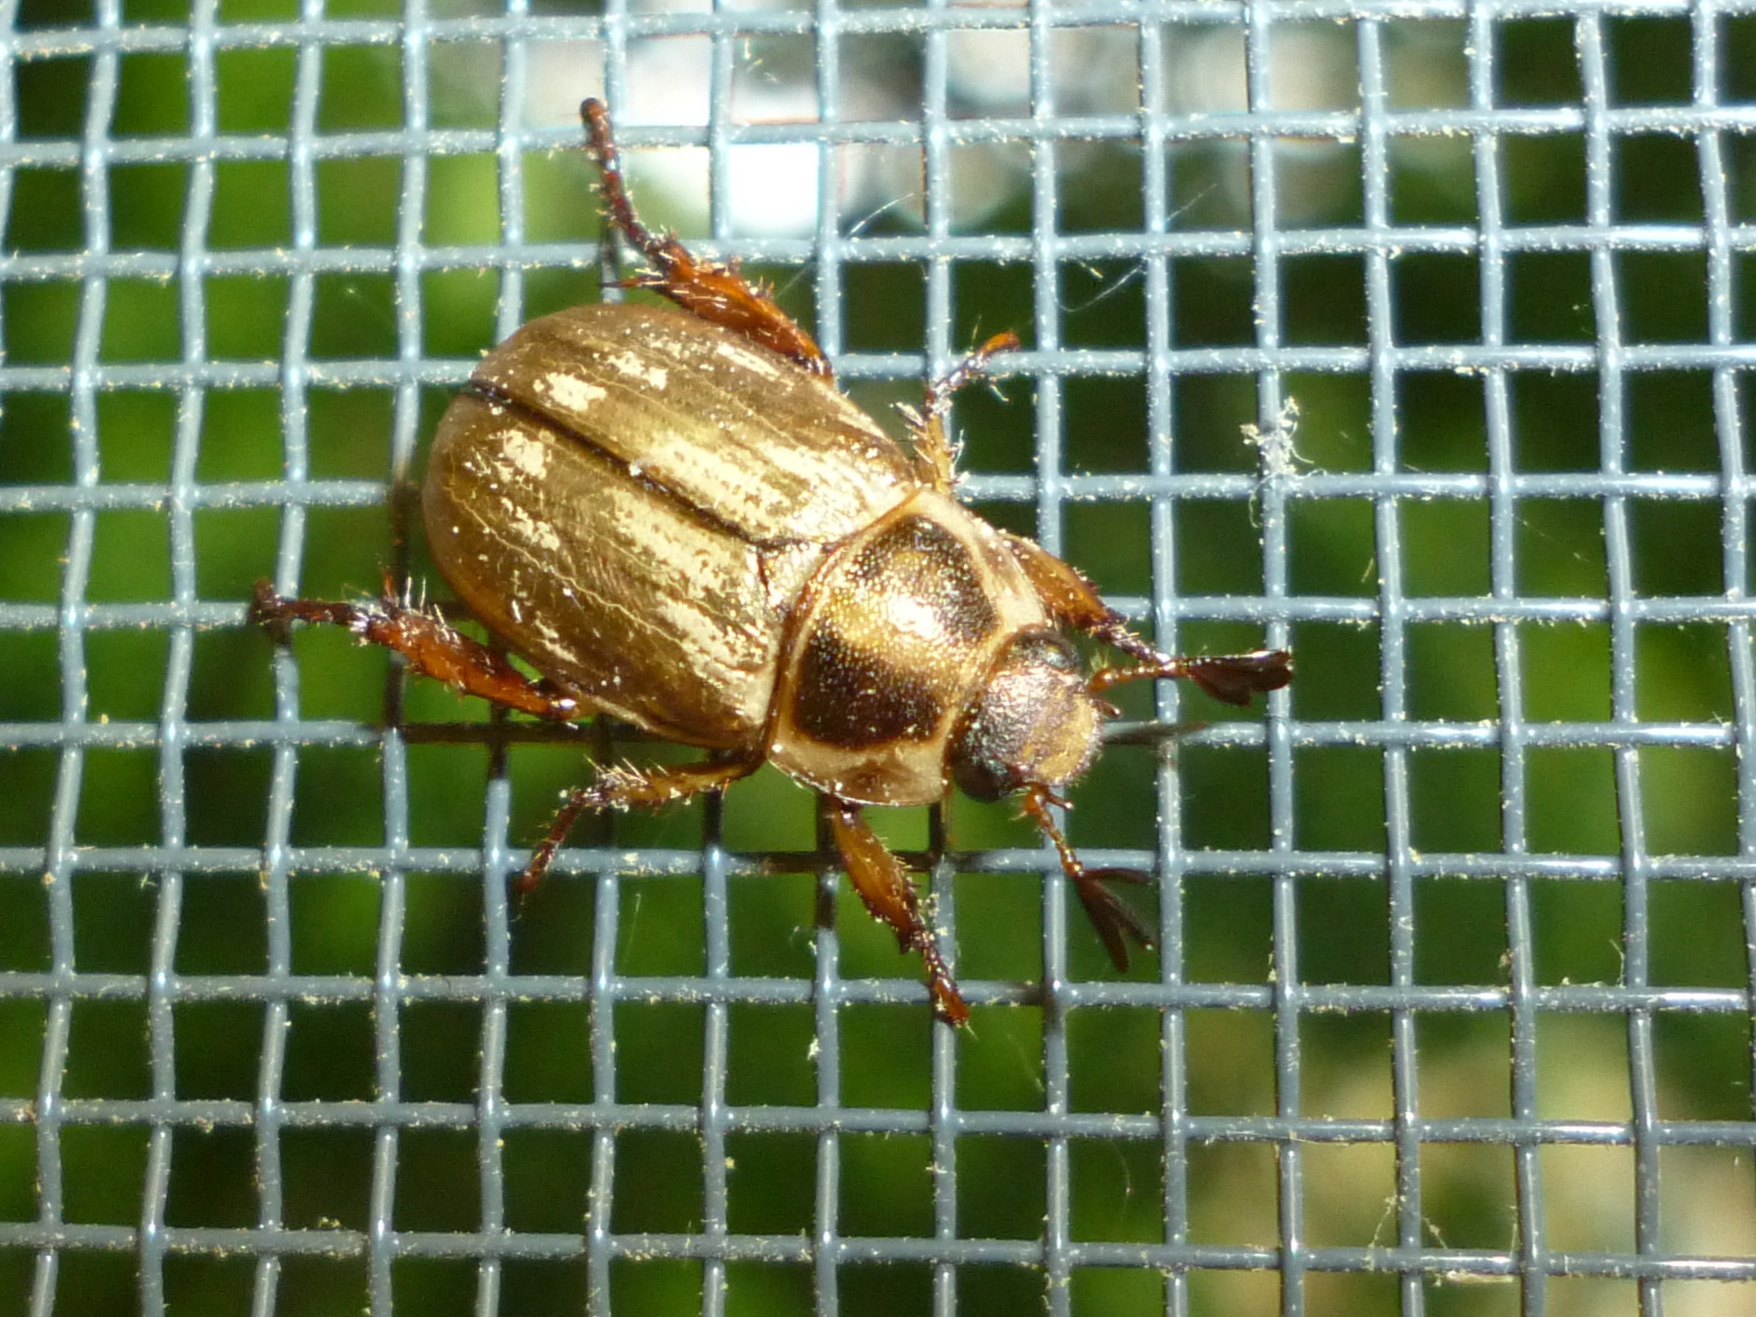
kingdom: Animalia
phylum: Arthropoda
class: Insecta
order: Coleoptera
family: Scarabaeidae
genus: Exomala
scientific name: Exomala orientalis
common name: Oriental beetle
